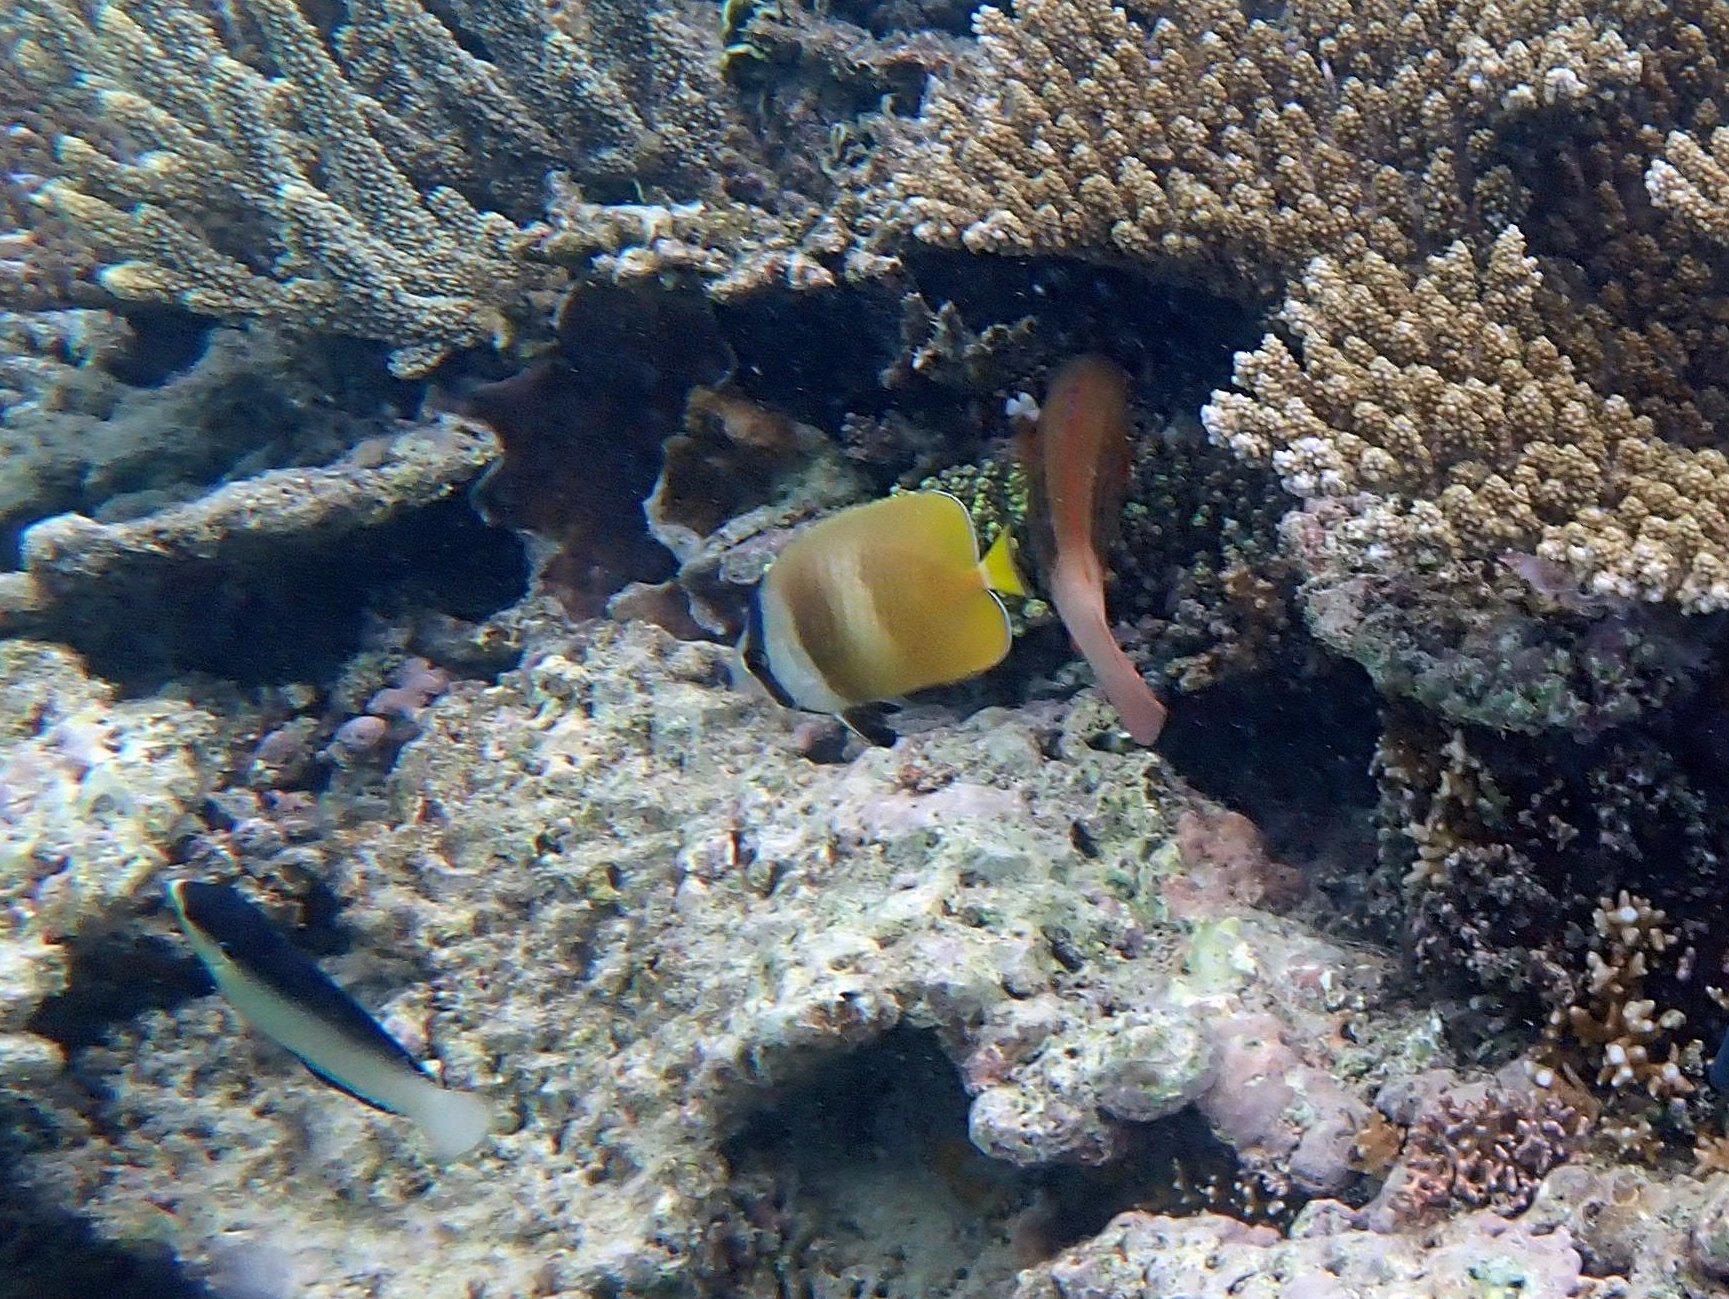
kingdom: Animalia
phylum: Chordata
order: Perciformes
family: Chaetodontidae
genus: Chaetodon
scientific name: Chaetodon kleinii
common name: Klein's butterflyfish
